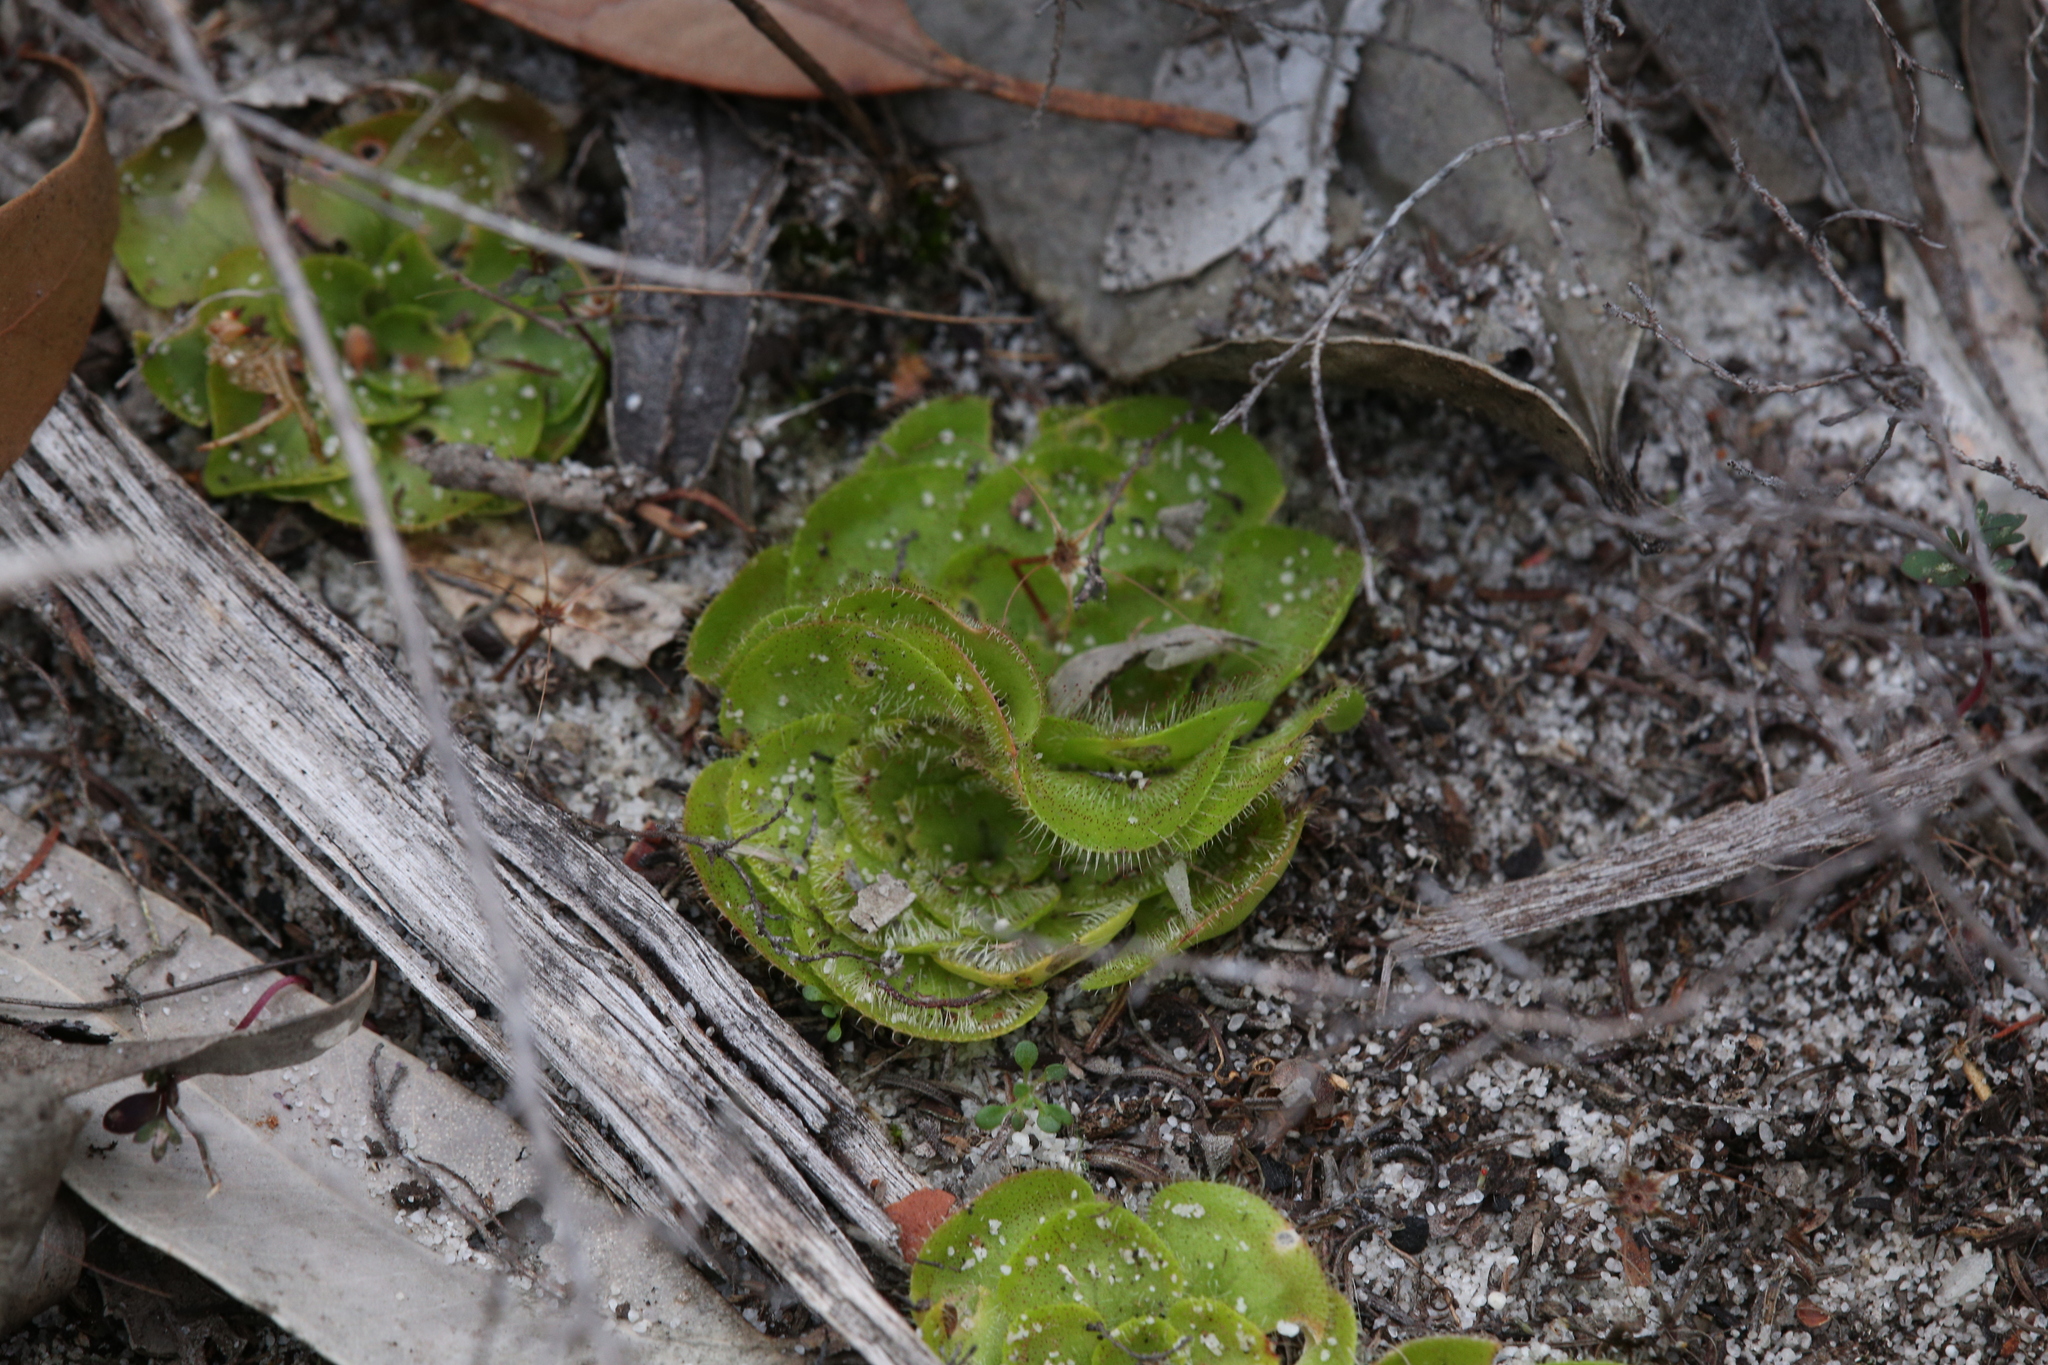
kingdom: Plantae
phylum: Tracheophyta
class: Magnoliopsida
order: Caryophyllales
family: Droseraceae
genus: Drosera
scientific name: Drosera zonaria
